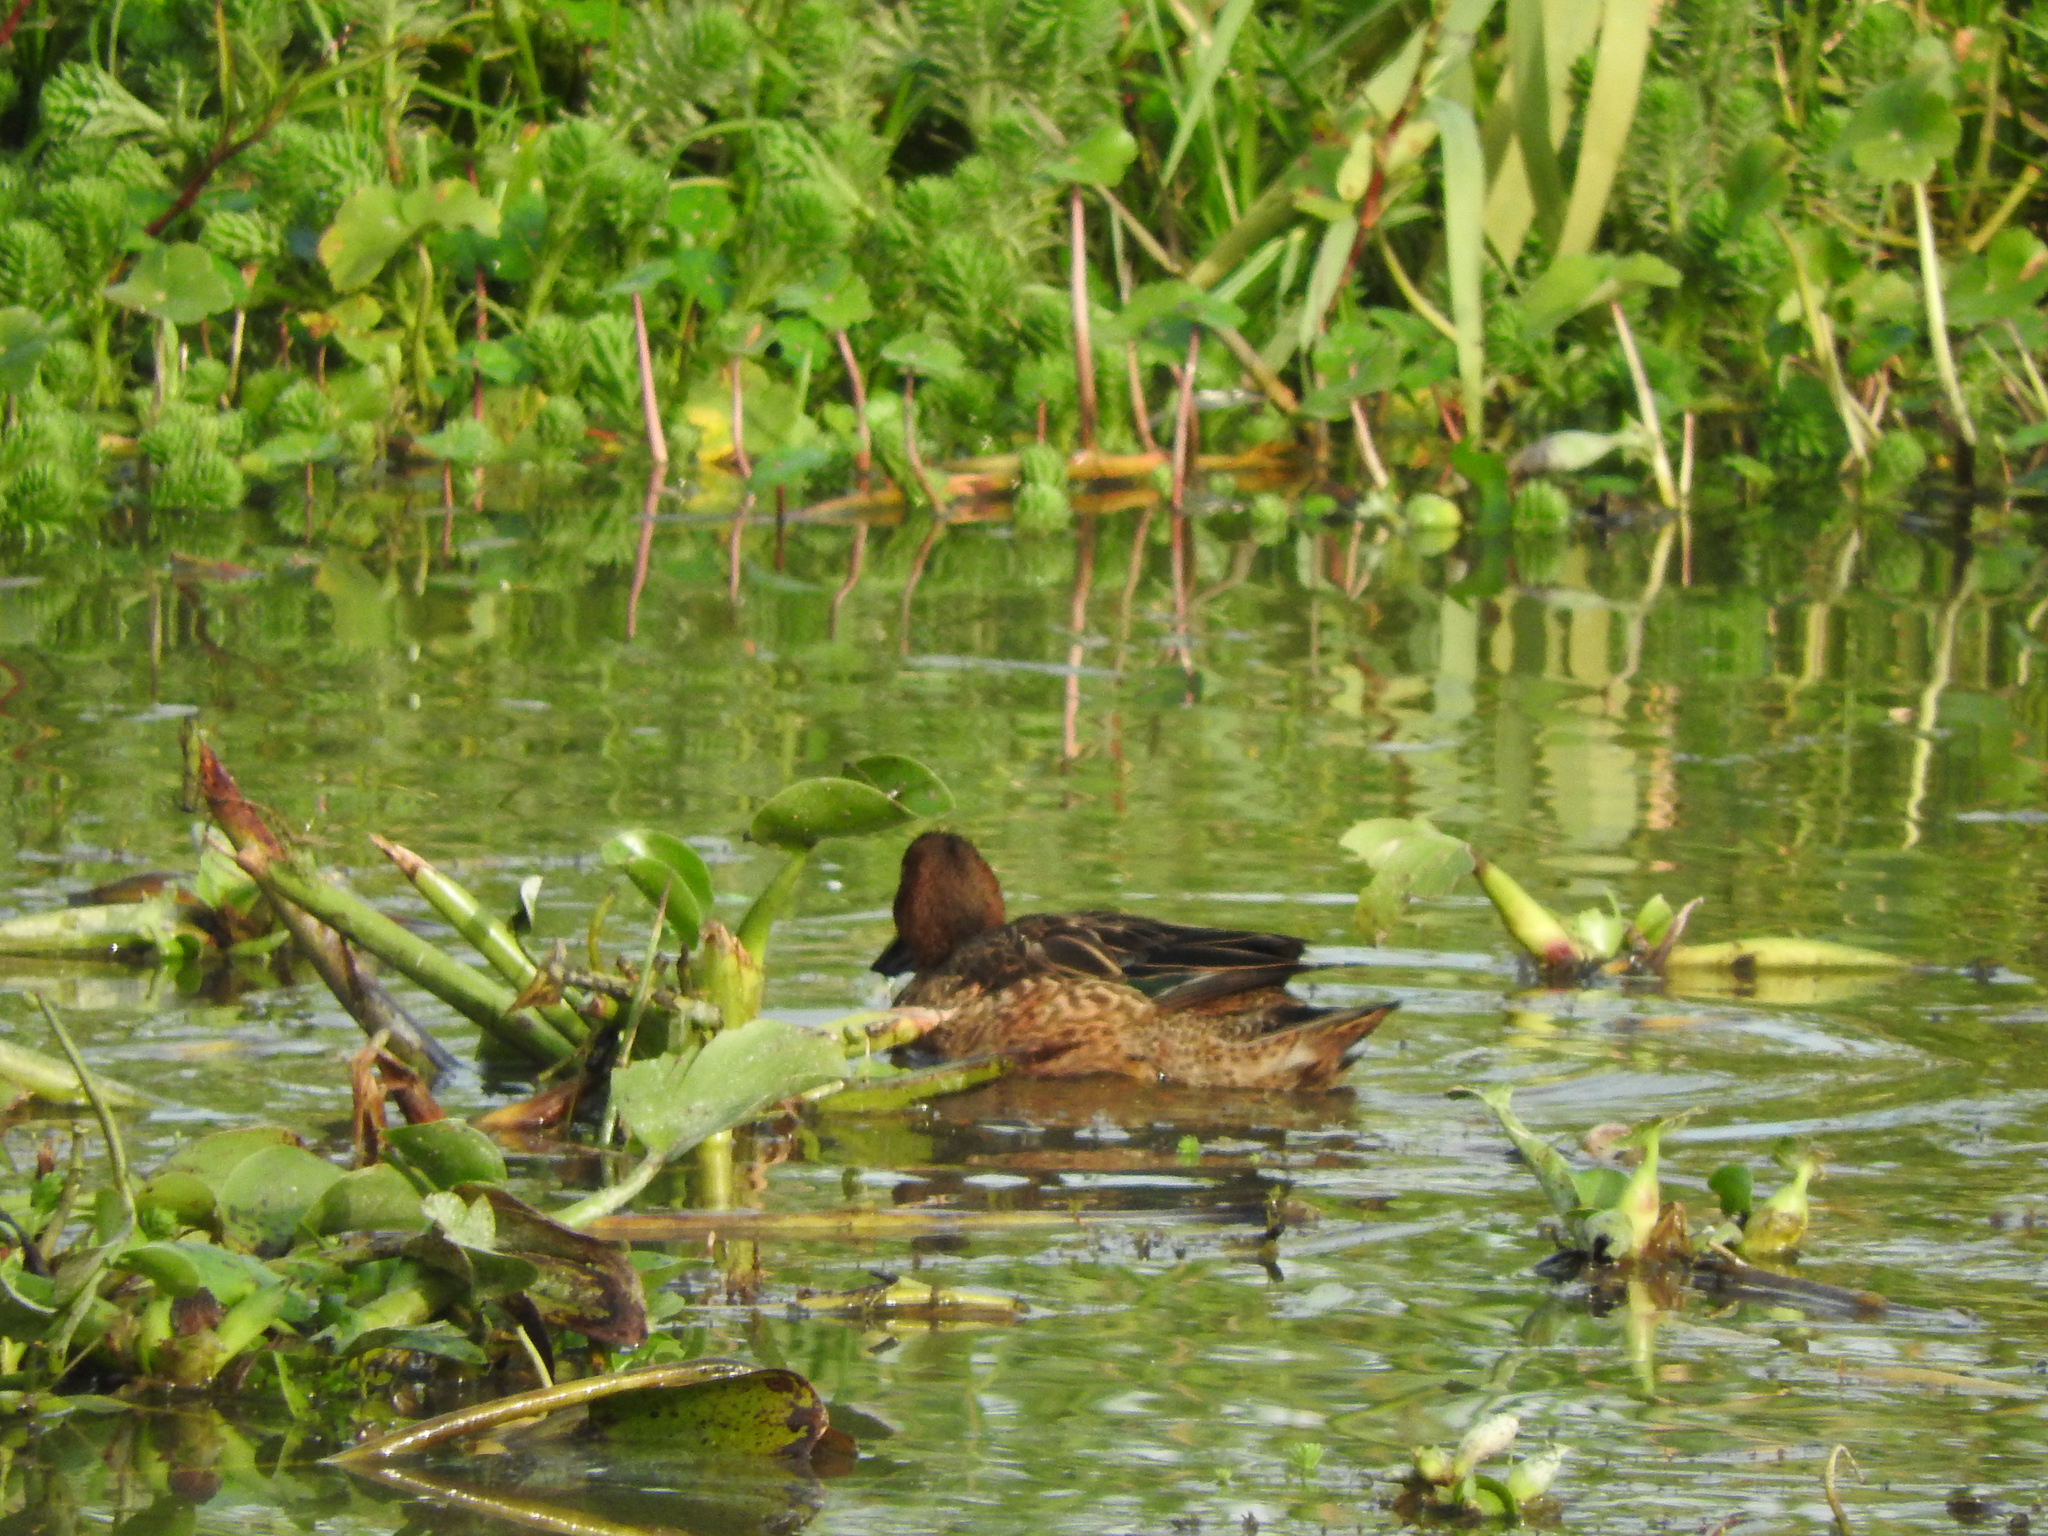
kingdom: Animalia
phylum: Chordata
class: Aves
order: Anseriformes
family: Anatidae
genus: Spatula
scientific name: Spatula cyanoptera
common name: Cinnamon teal
